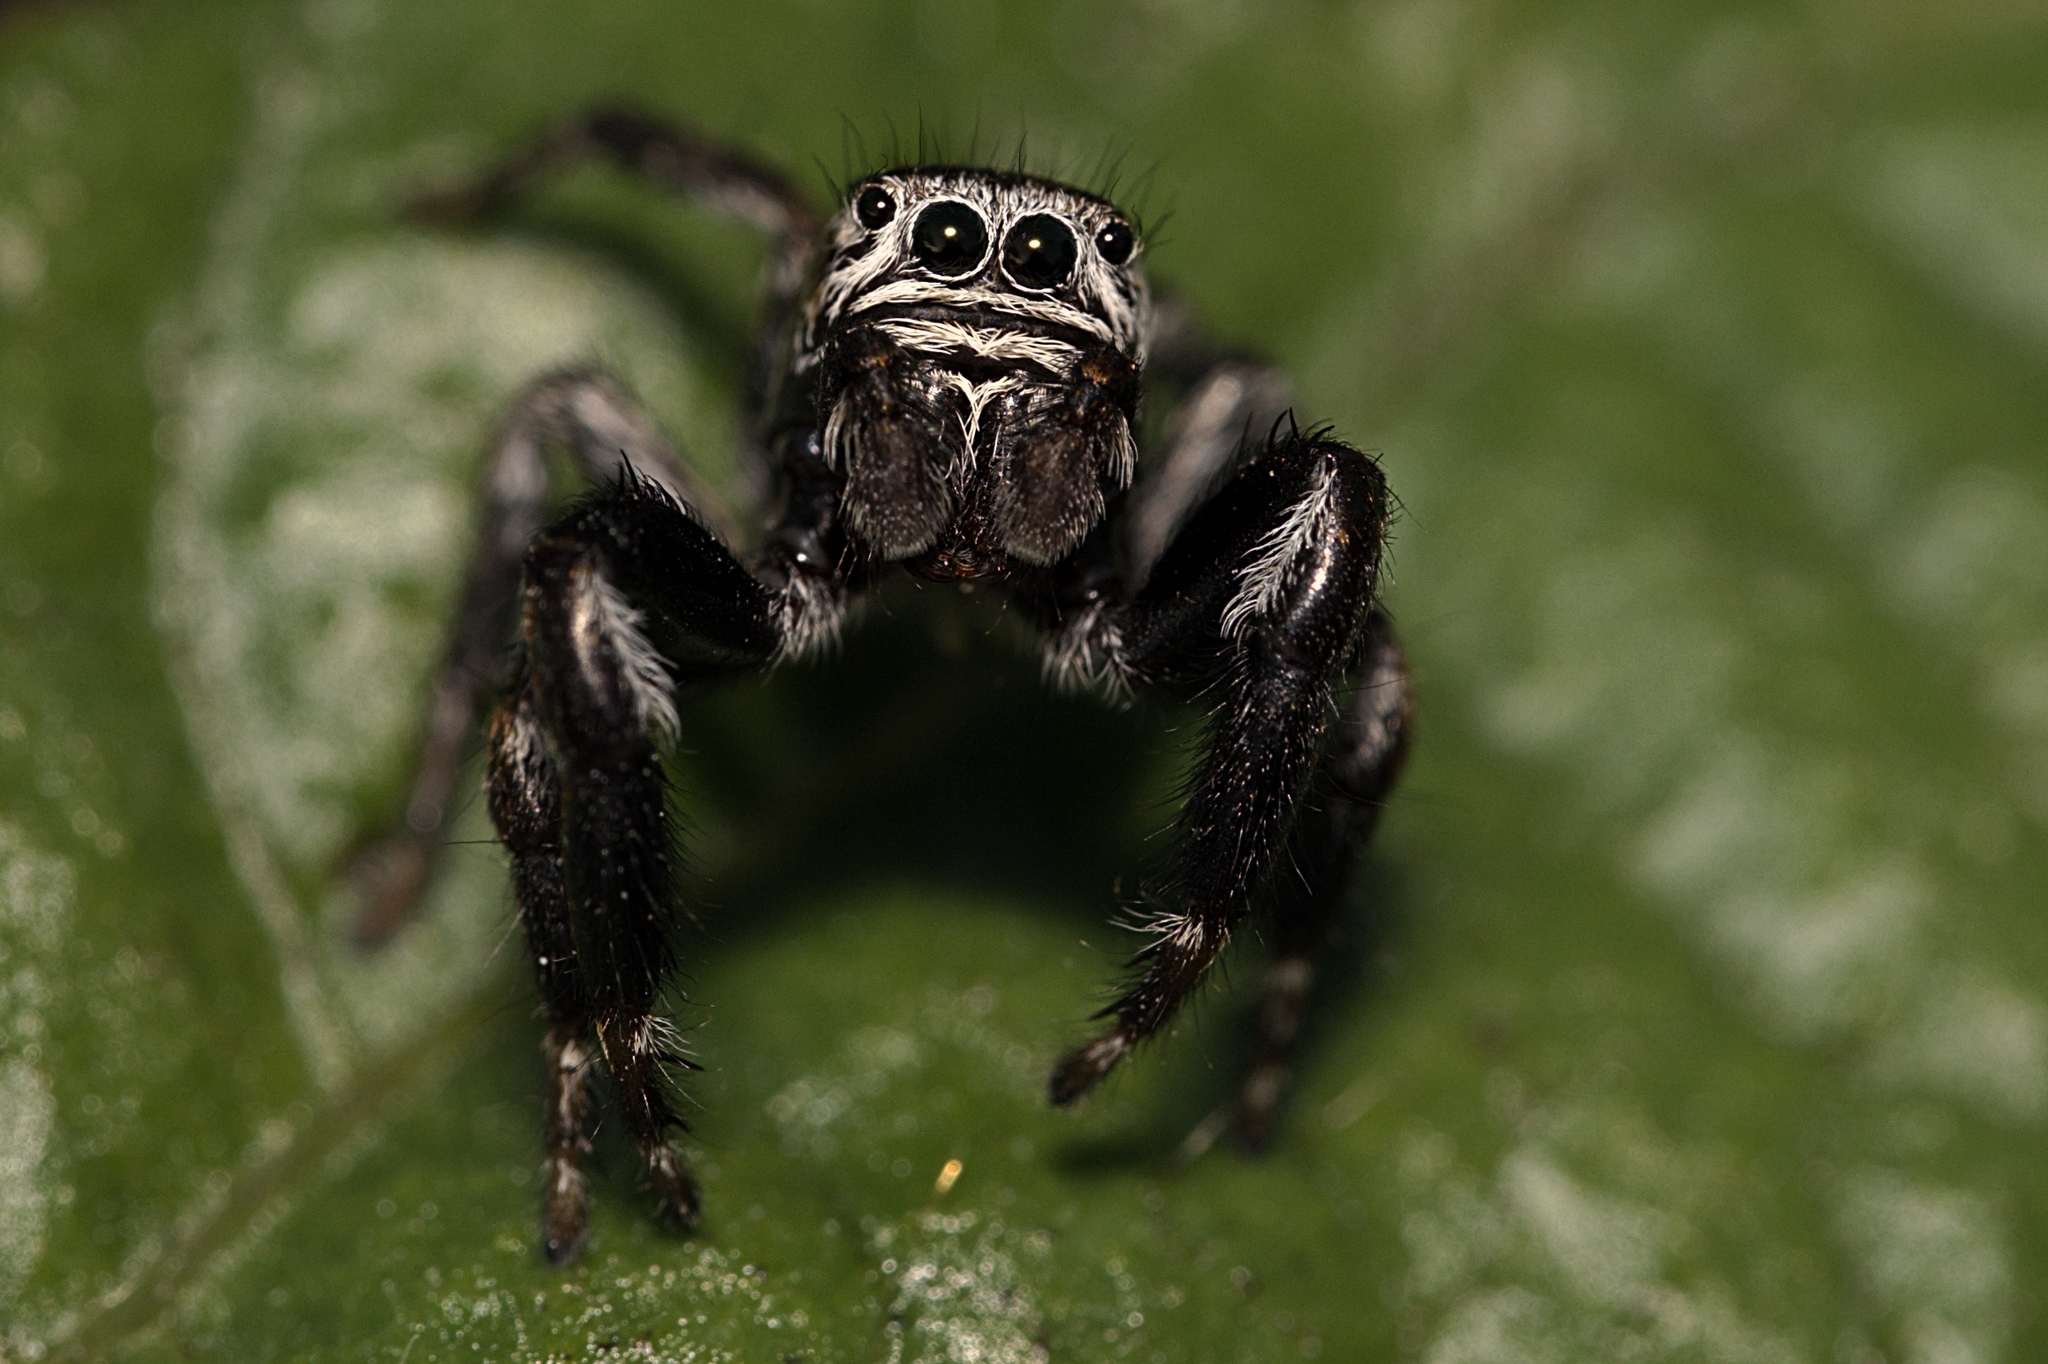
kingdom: Animalia
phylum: Arthropoda
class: Arachnida
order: Araneae
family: Salticidae
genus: Evarcha
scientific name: Evarcha arcuata
